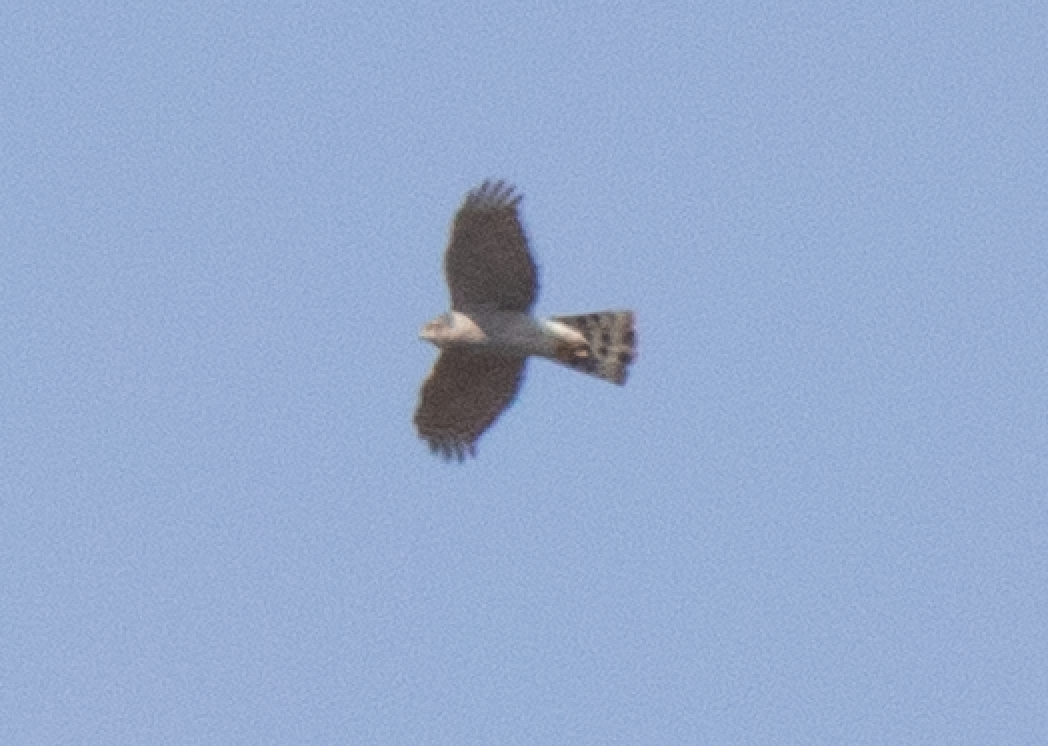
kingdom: Animalia
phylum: Chordata
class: Aves
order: Accipitriformes
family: Accipitridae
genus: Accipiter
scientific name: Accipiter nisus
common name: Eurasian sparrowhawk
